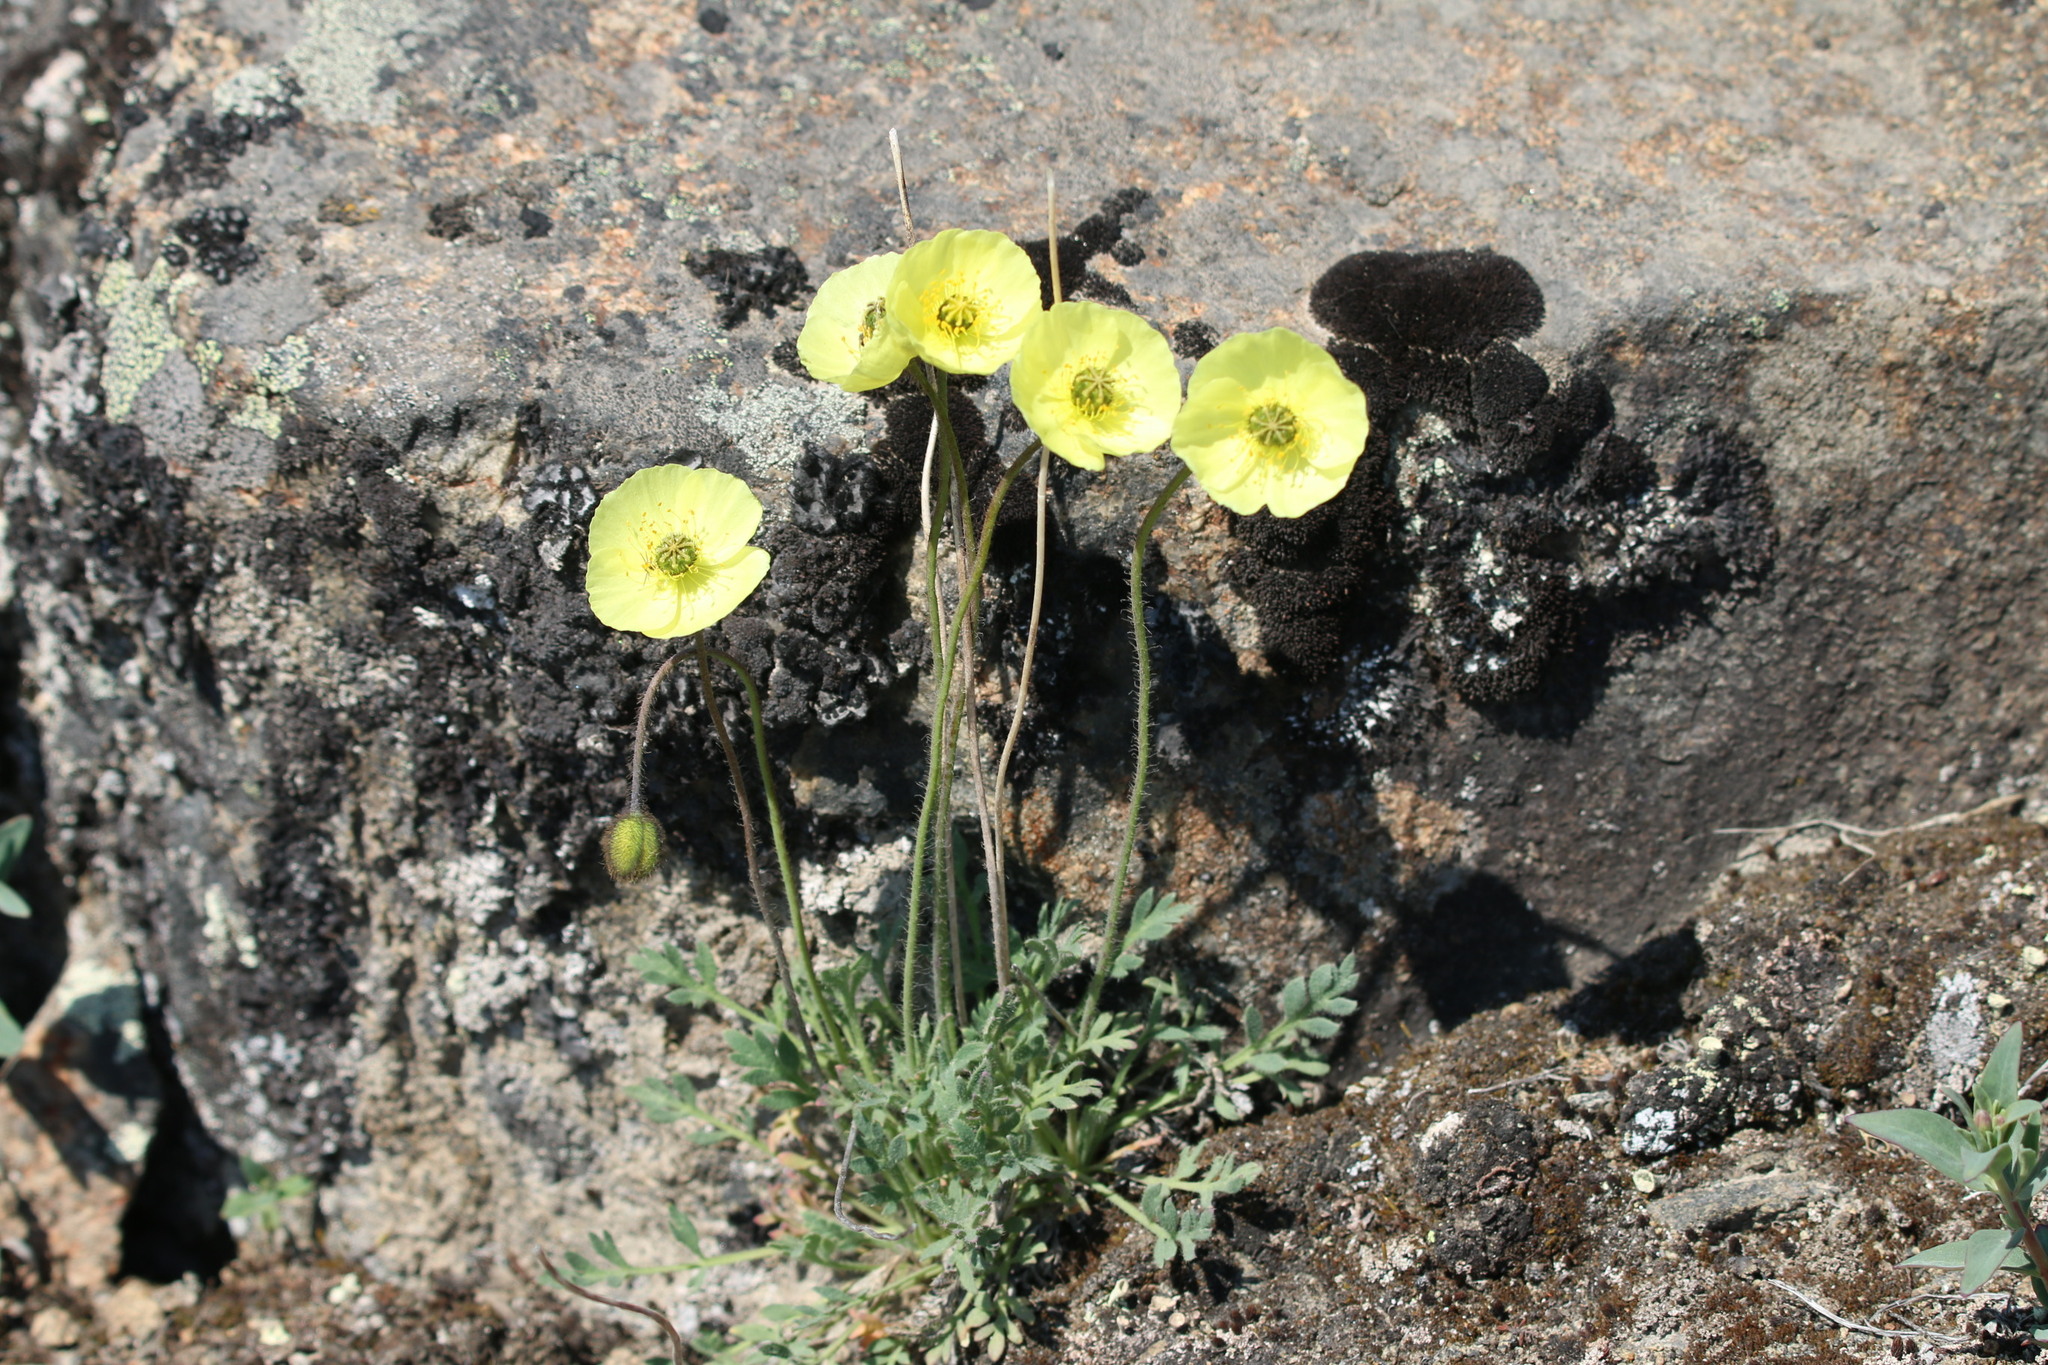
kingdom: Plantae
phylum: Tracheophyta
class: Magnoliopsida
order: Ranunculales
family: Papaveraceae
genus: Papaver
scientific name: Papaver radicatum
